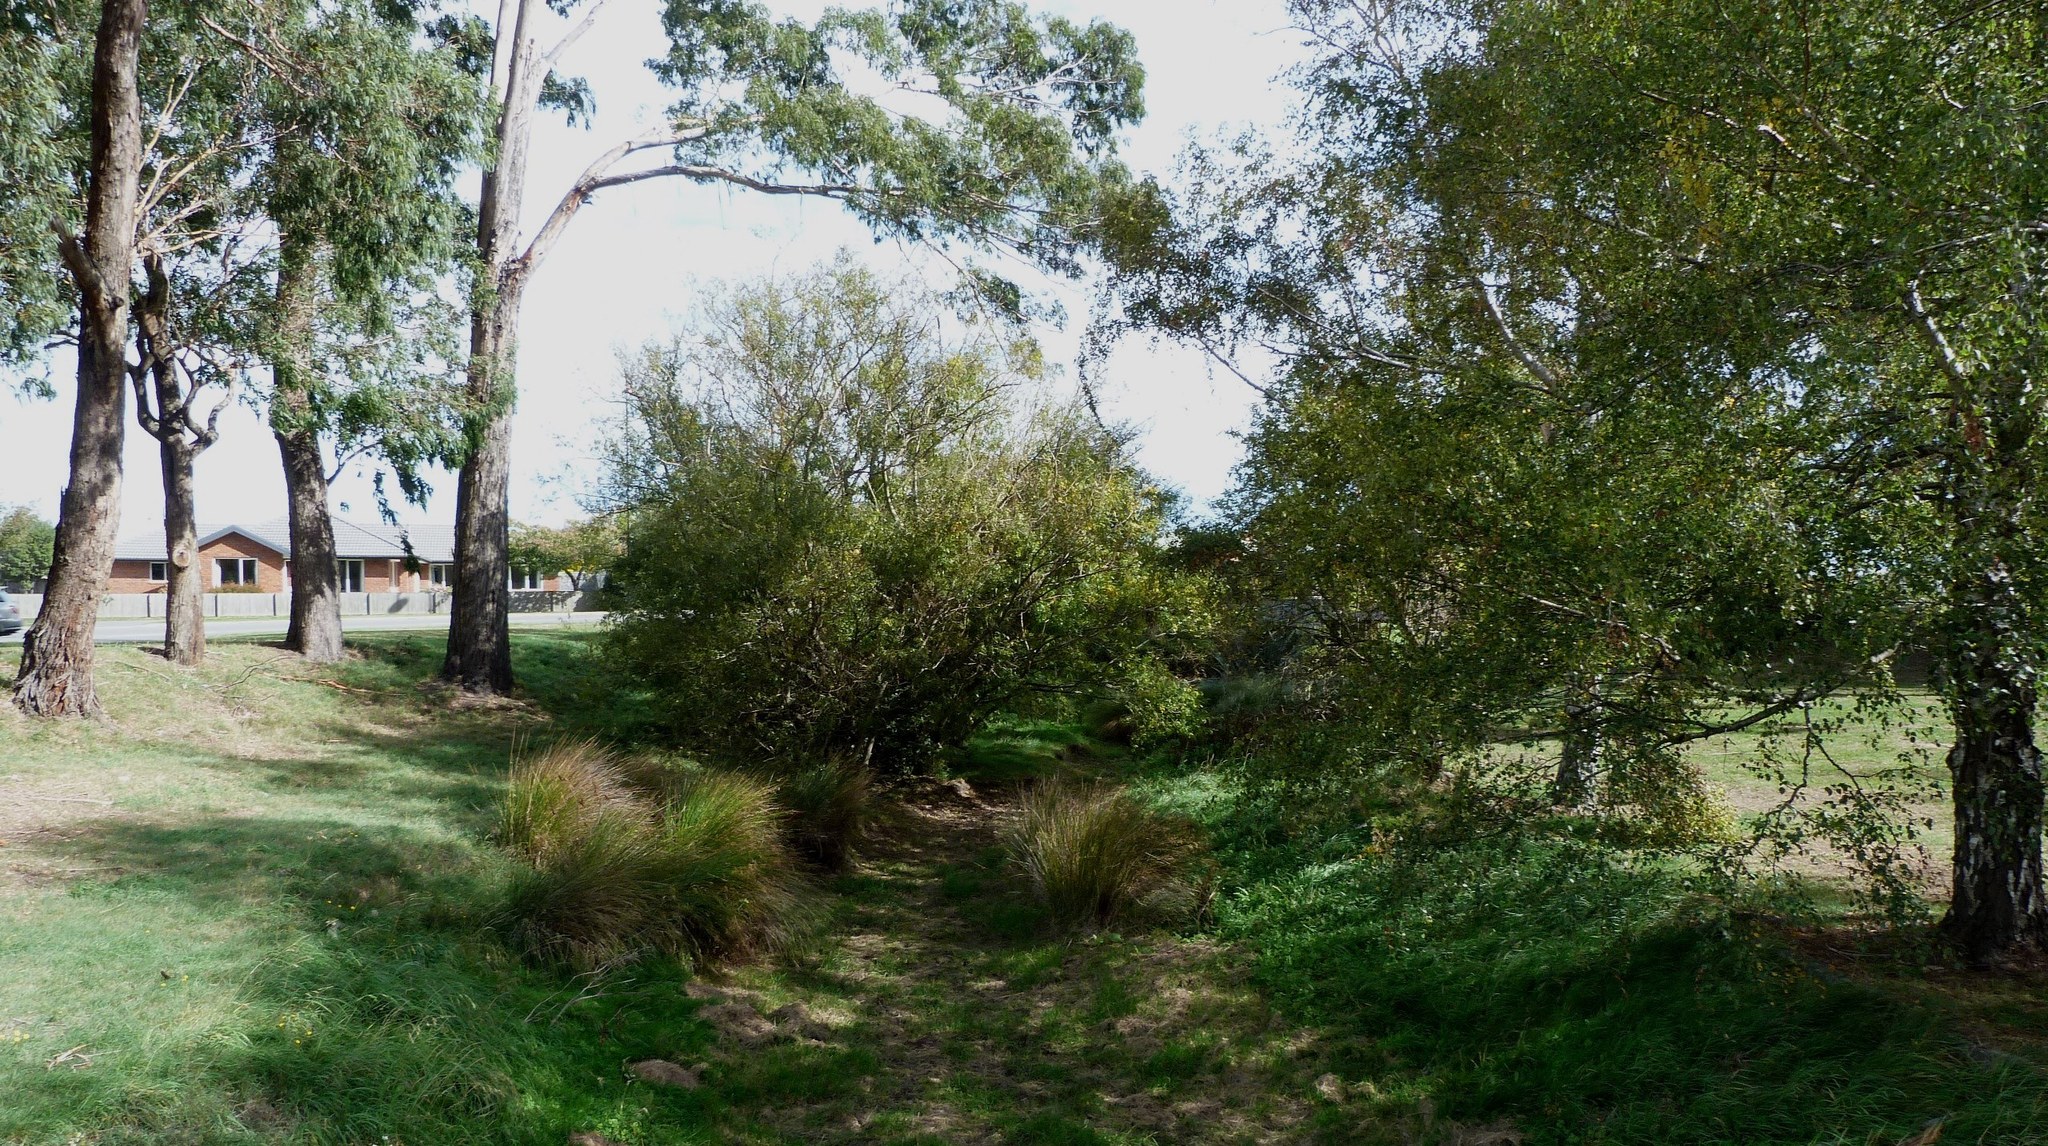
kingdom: Plantae
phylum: Tracheophyta
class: Liliopsida
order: Poales
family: Juncaceae
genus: Juncus
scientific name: Juncus edgariae
